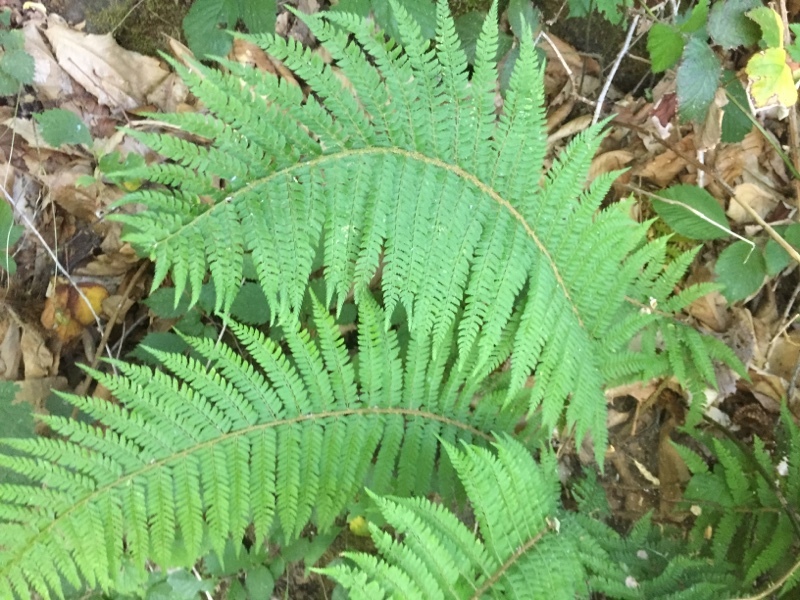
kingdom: Plantae
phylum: Tracheophyta
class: Polypodiopsida
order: Polypodiales
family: Dryopteridaceae
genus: Polystichum
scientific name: Polystichum setiferum
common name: Soft shield-fern
